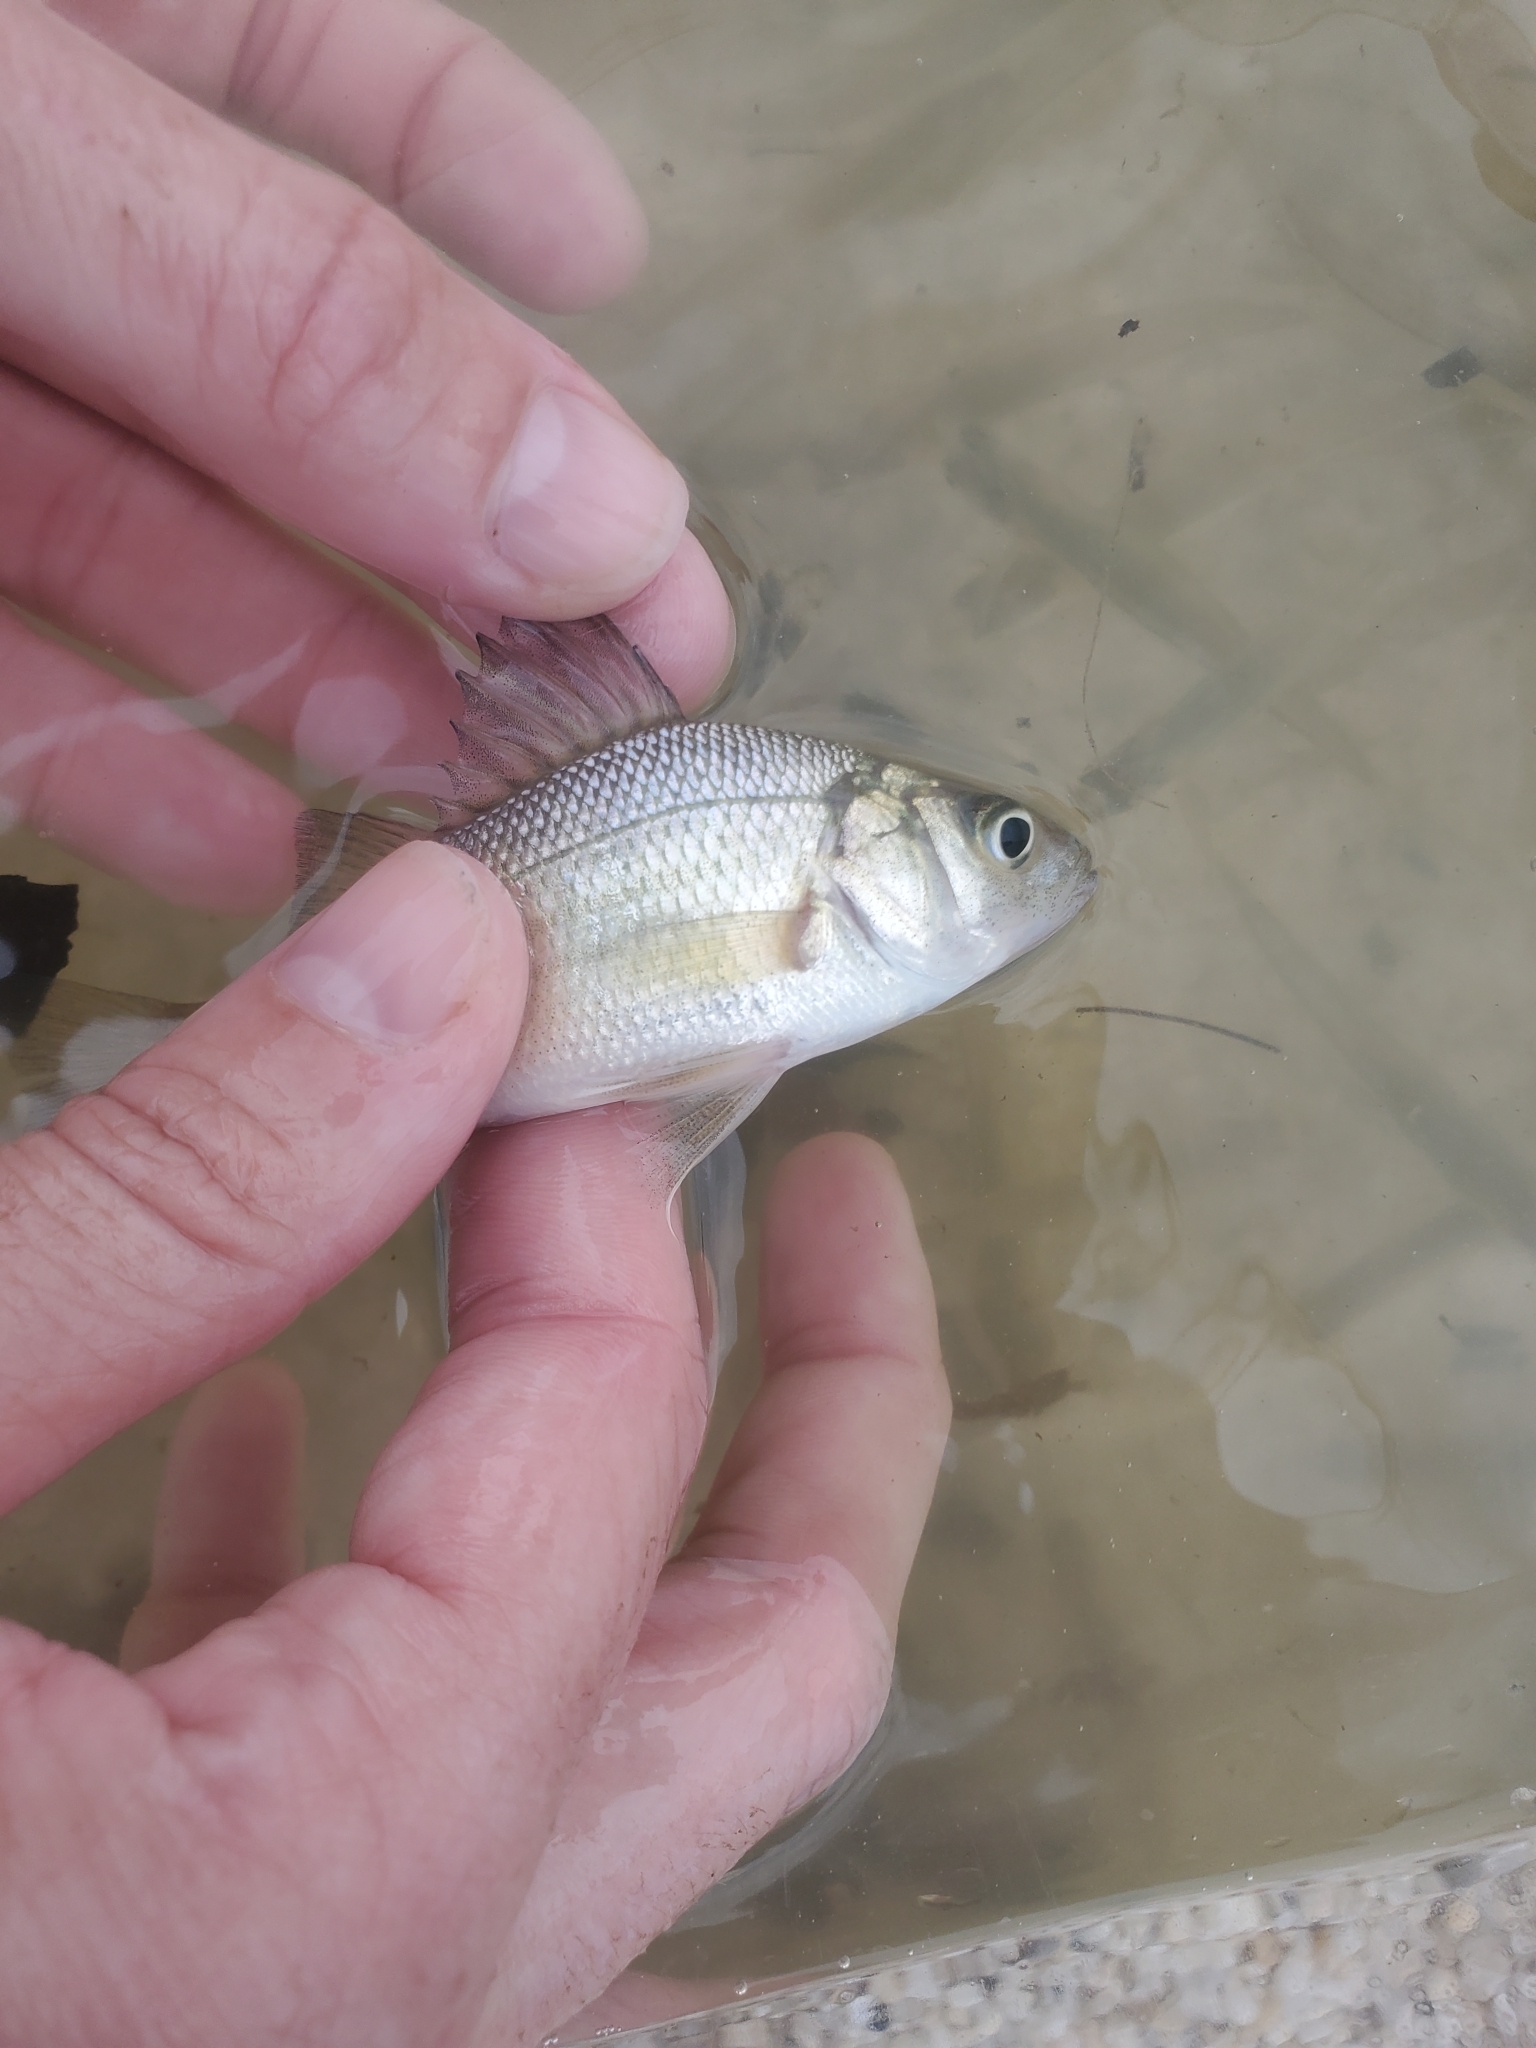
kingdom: Animalia
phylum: Chordata
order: Perciformes
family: Moronidae
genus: Morone
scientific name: Morone americana
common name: White perch
